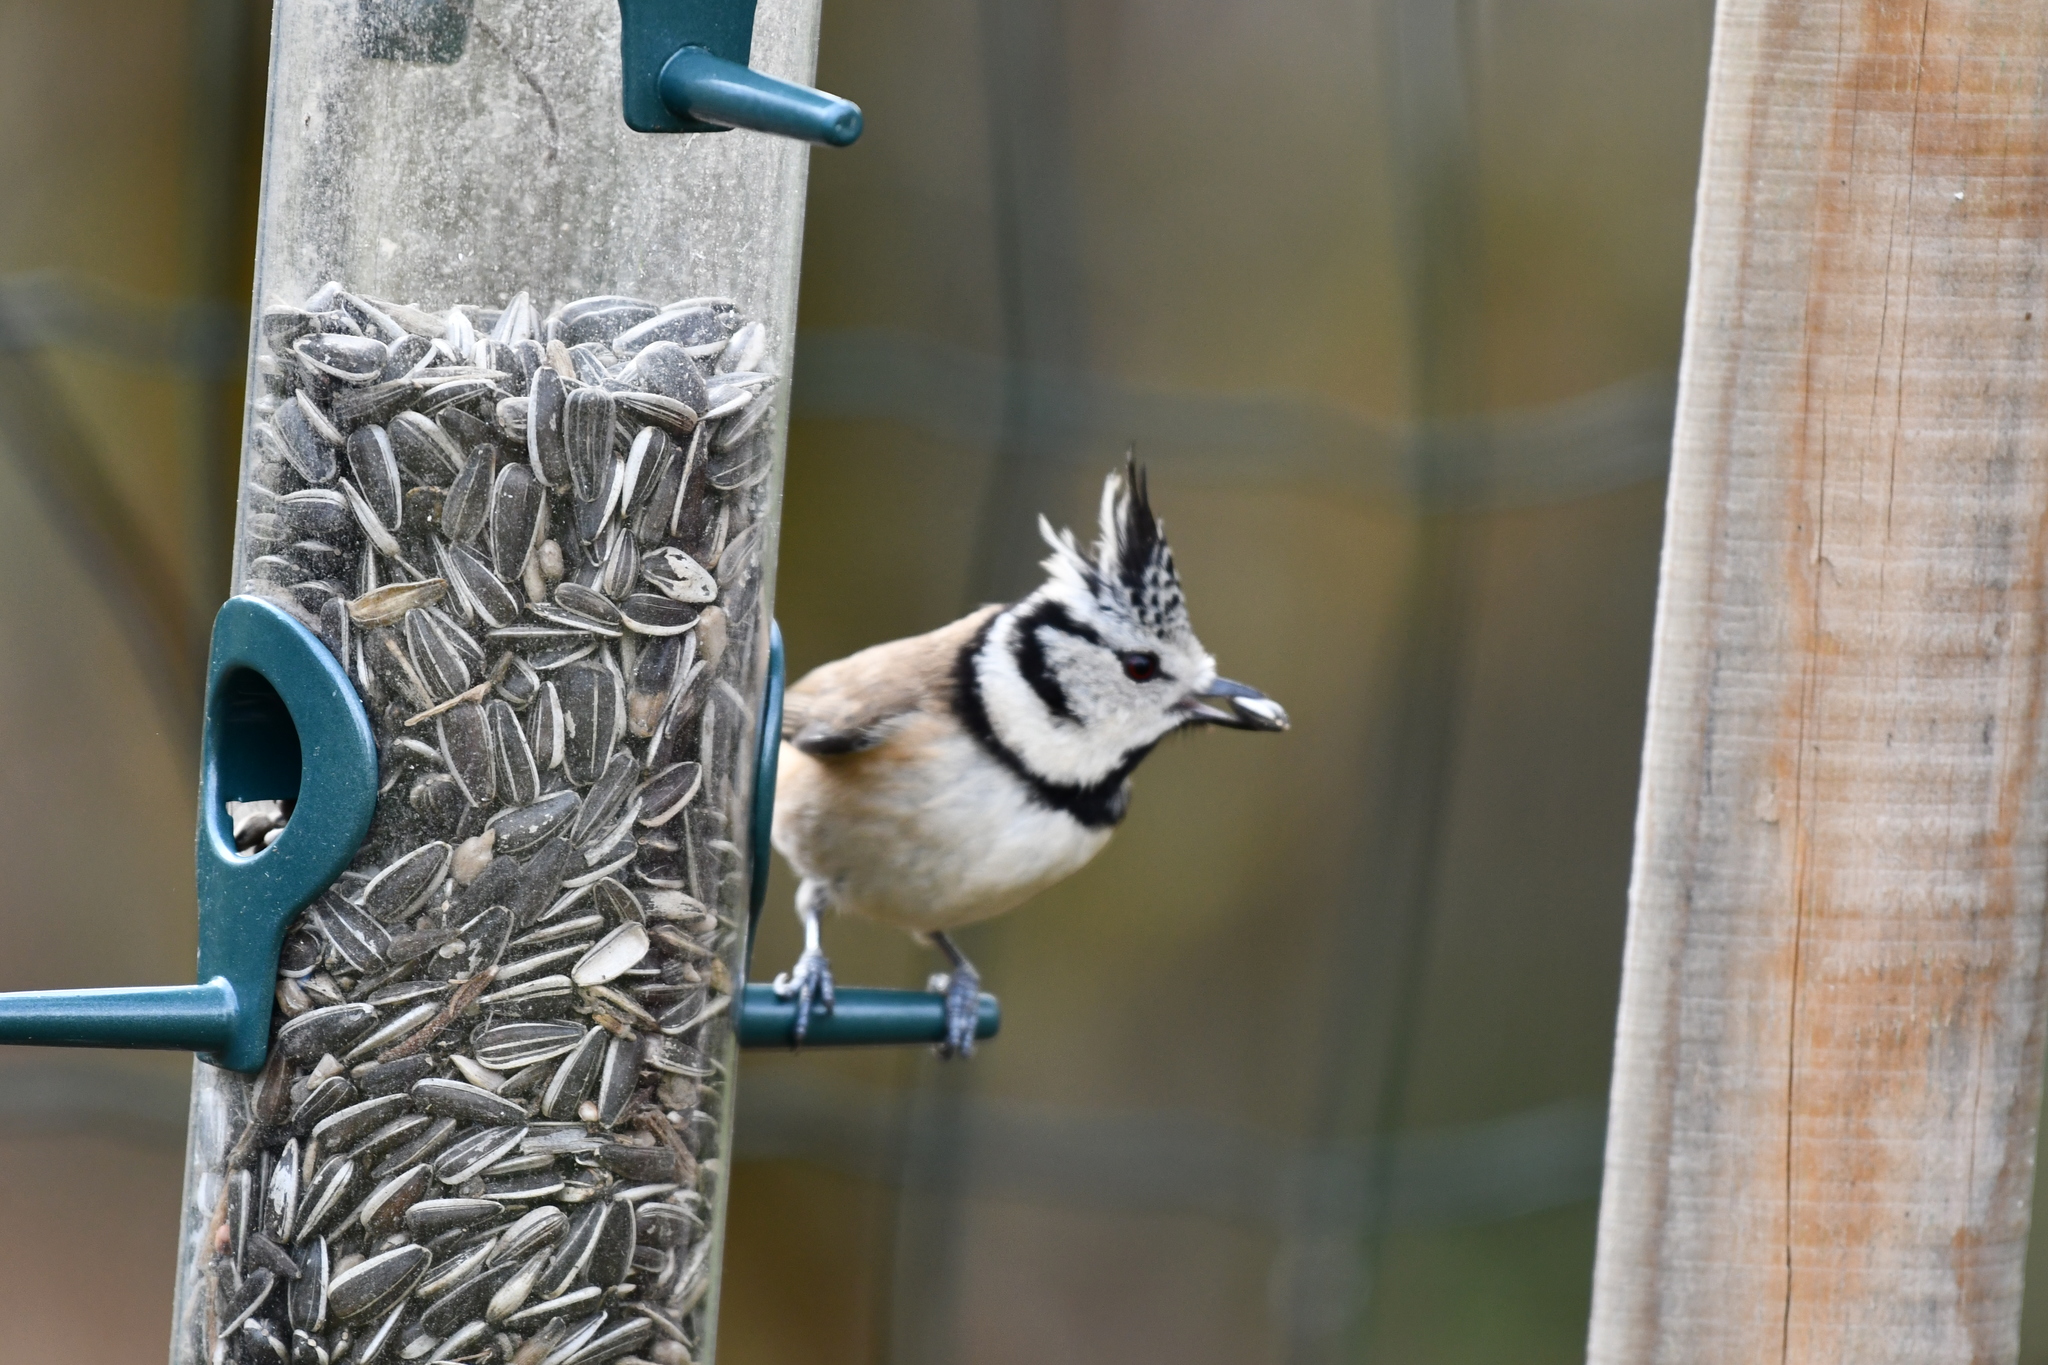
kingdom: Animalia
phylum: Chordata
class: Aves
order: Passeriformes
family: Paridae
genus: Lophophanes
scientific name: Lophophanes cristatus
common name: European crested tit
